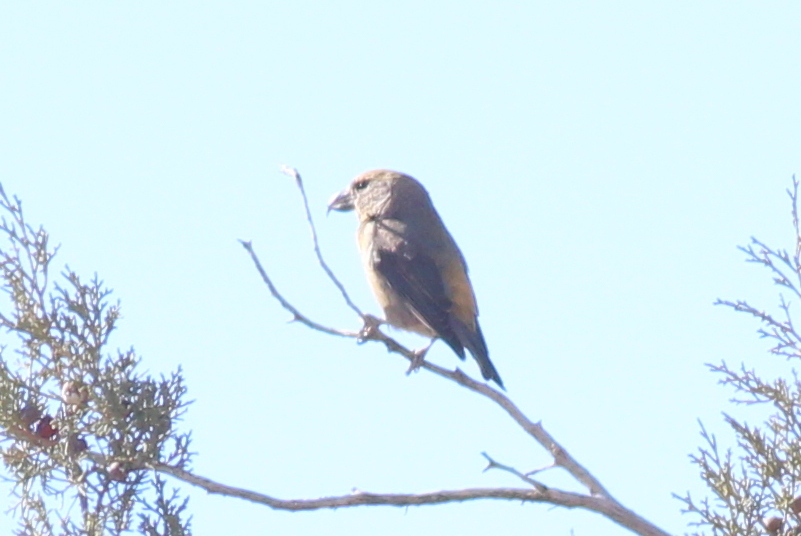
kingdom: Animalia
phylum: Chordata
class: Aves
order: Passeriformes
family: Fringillidae
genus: Loxia
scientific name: Loxia curvirostra
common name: Red crossbill
